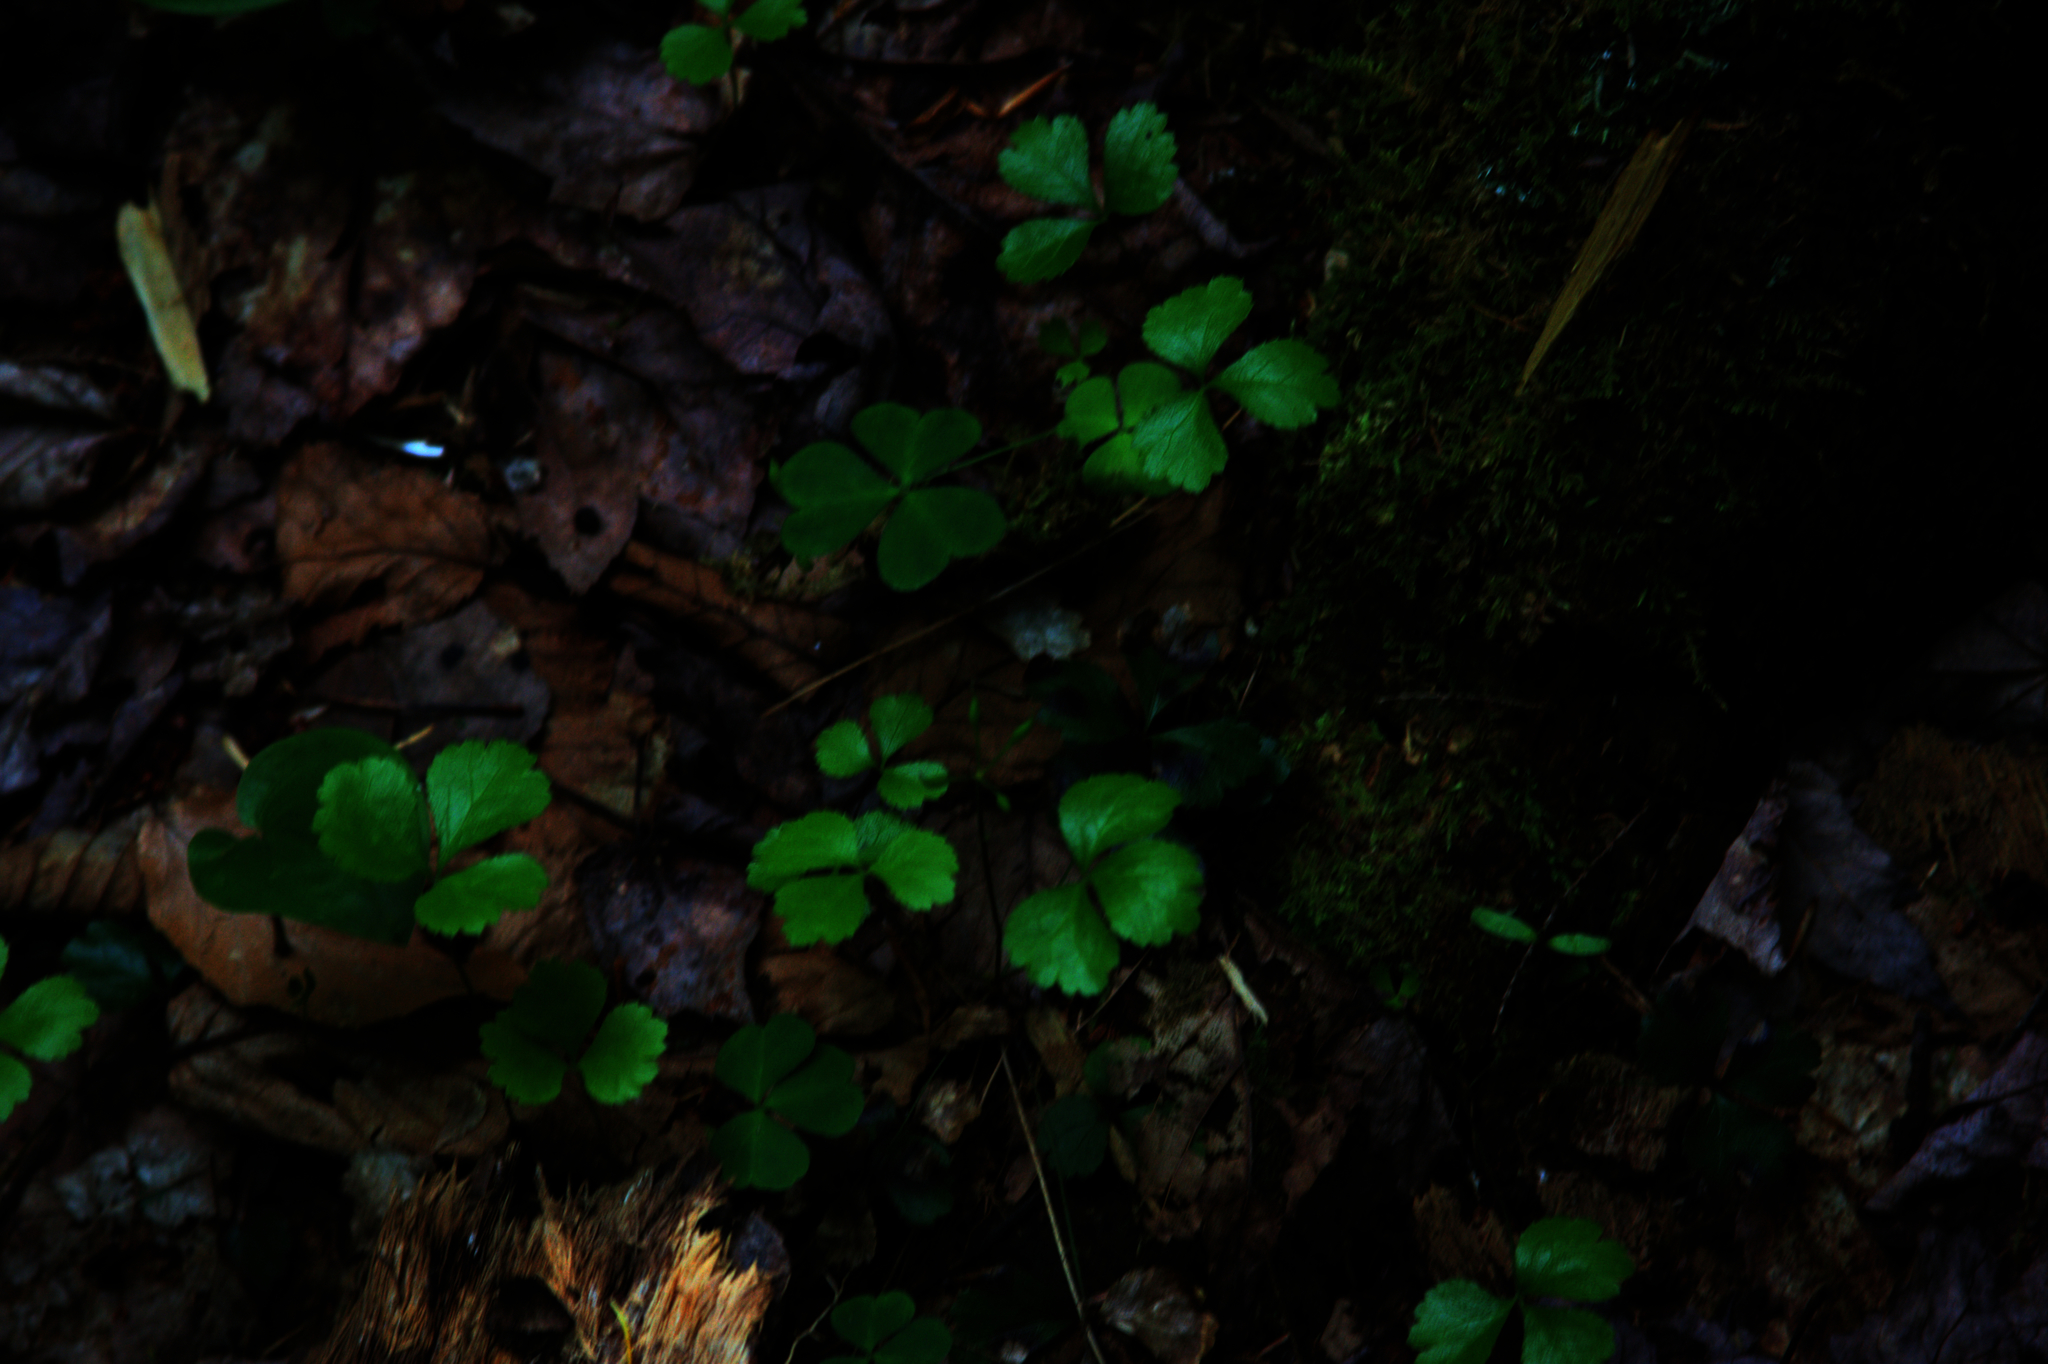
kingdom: Plantae
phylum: Tracheophyta
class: Magnoliopsida
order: Ranunculales
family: Ranunculaceae
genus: Coptis
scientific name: Coptis trifolia
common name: Canker-root
